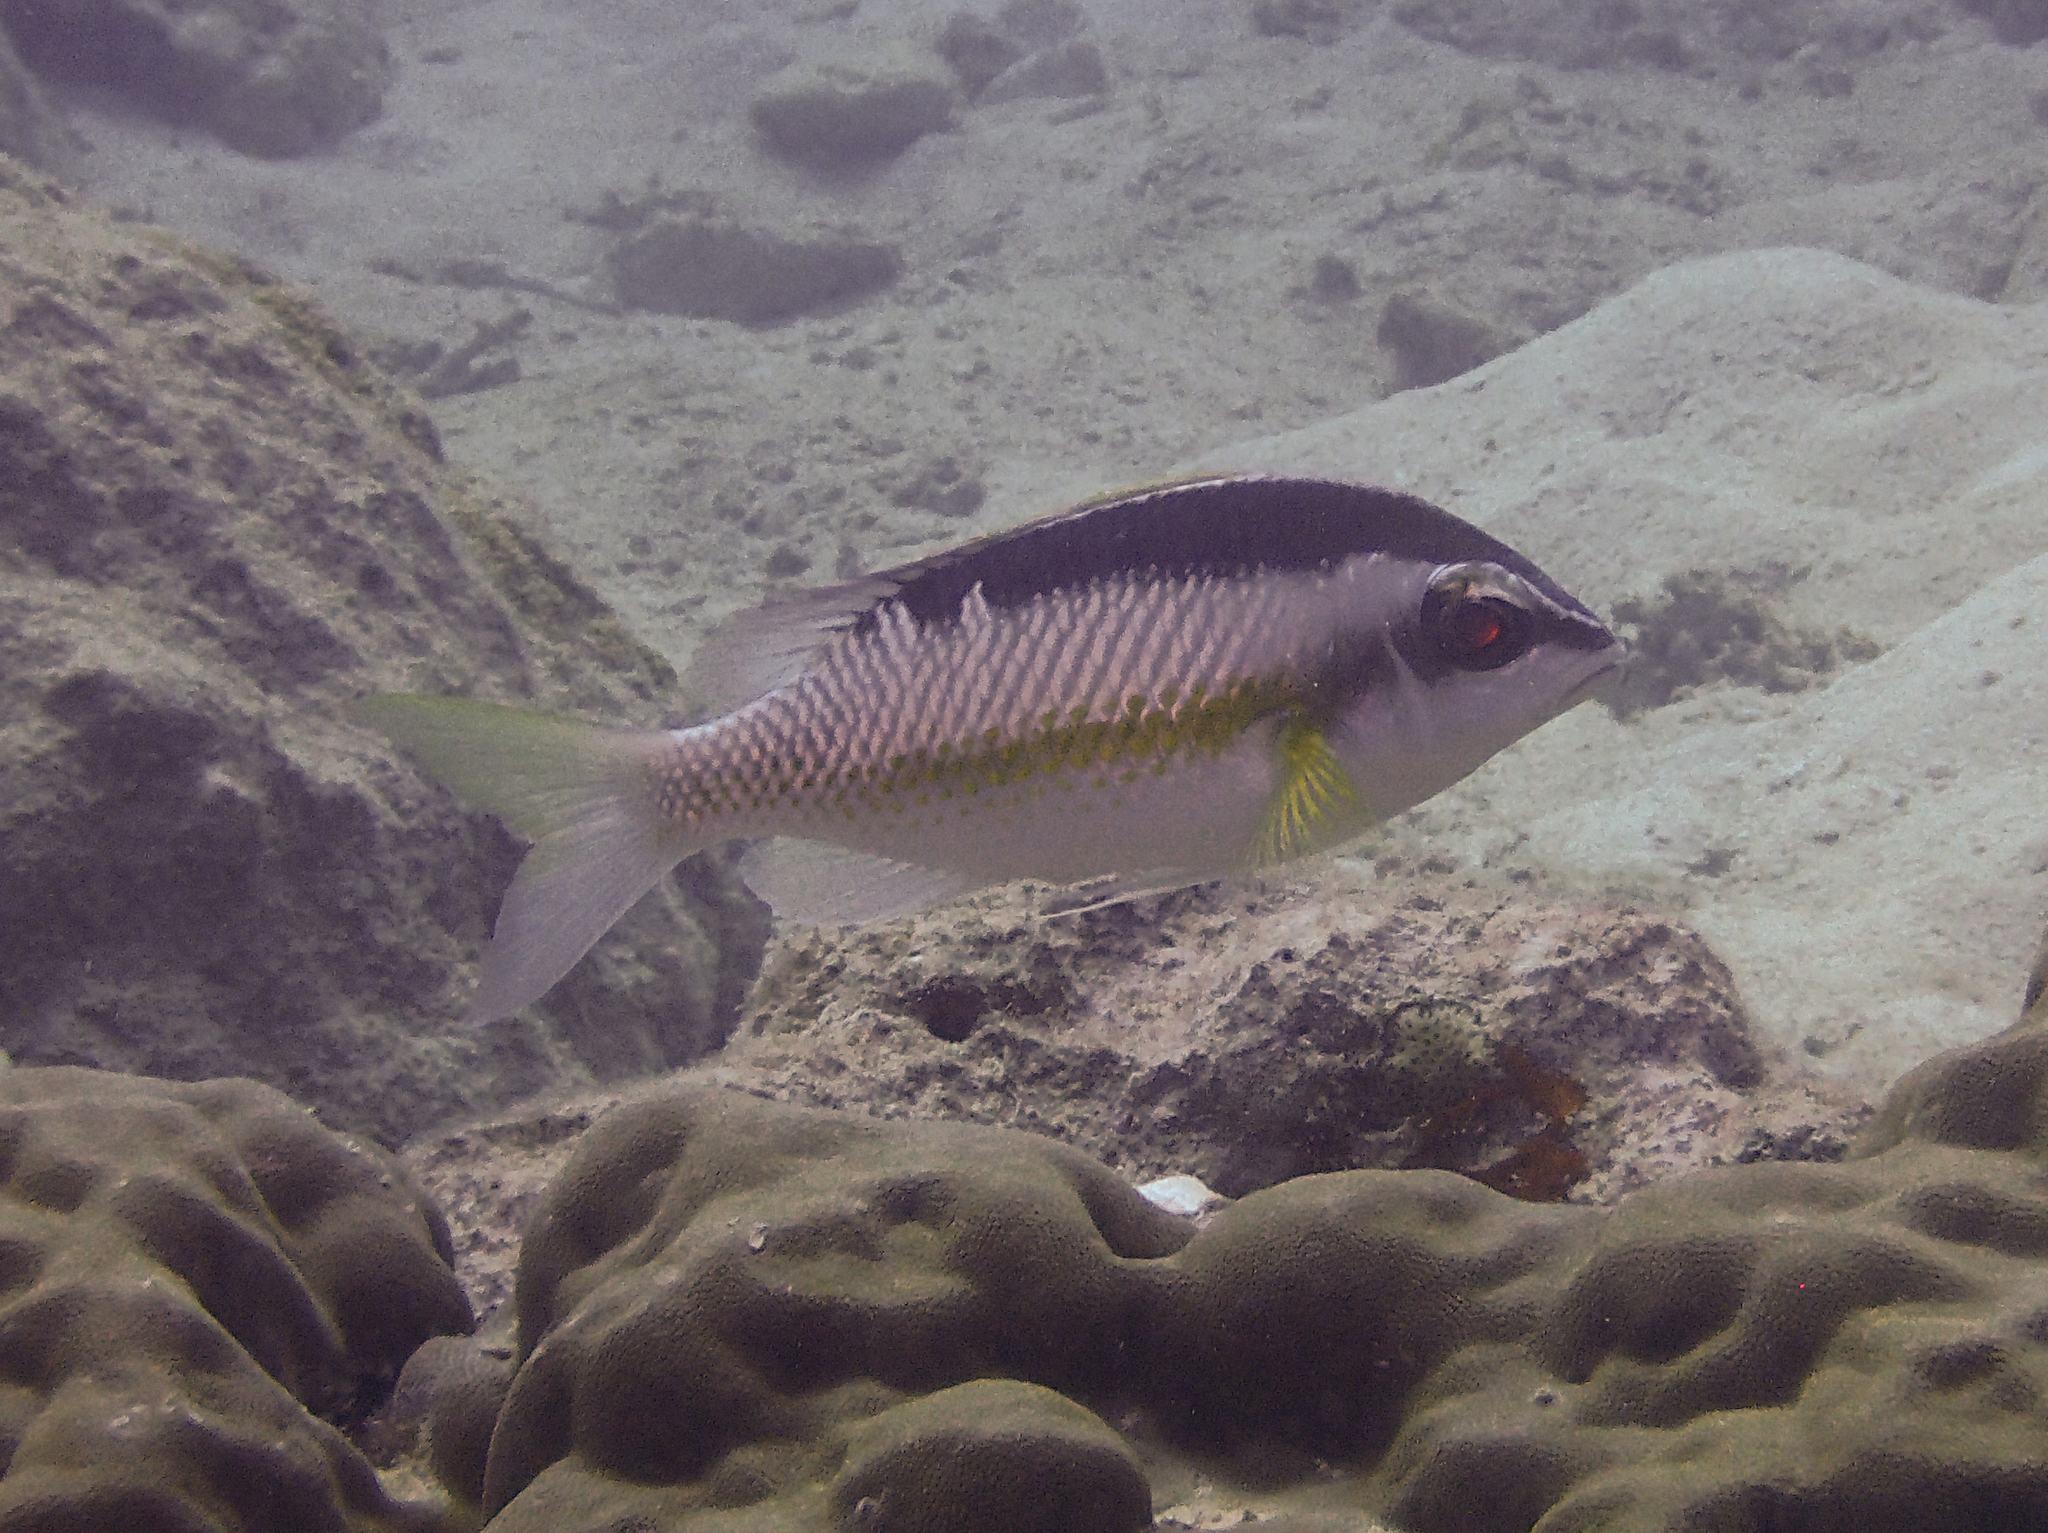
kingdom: Animalia
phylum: Chordata
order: Perciformes
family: Nemipteridae
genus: Scolopsis
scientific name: Scolopsis margaritifera
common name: Pearly monocle bream
